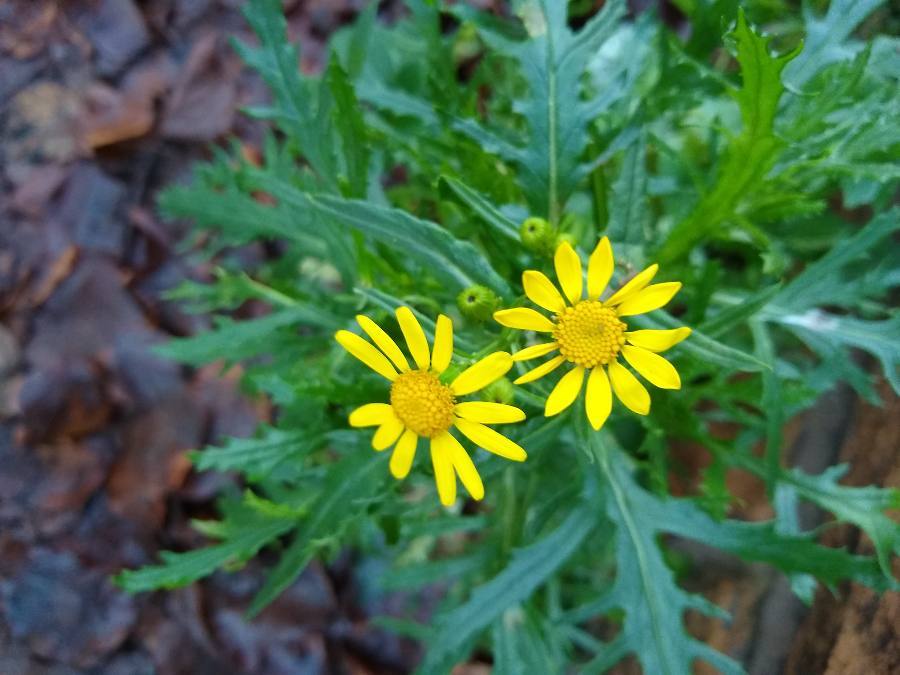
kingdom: Plantae
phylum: Tracheophyta
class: Magnoliopsida
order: Asterales
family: Asteraceae
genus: Senecio
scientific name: Senecio squalidus
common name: Oxford ragwort
